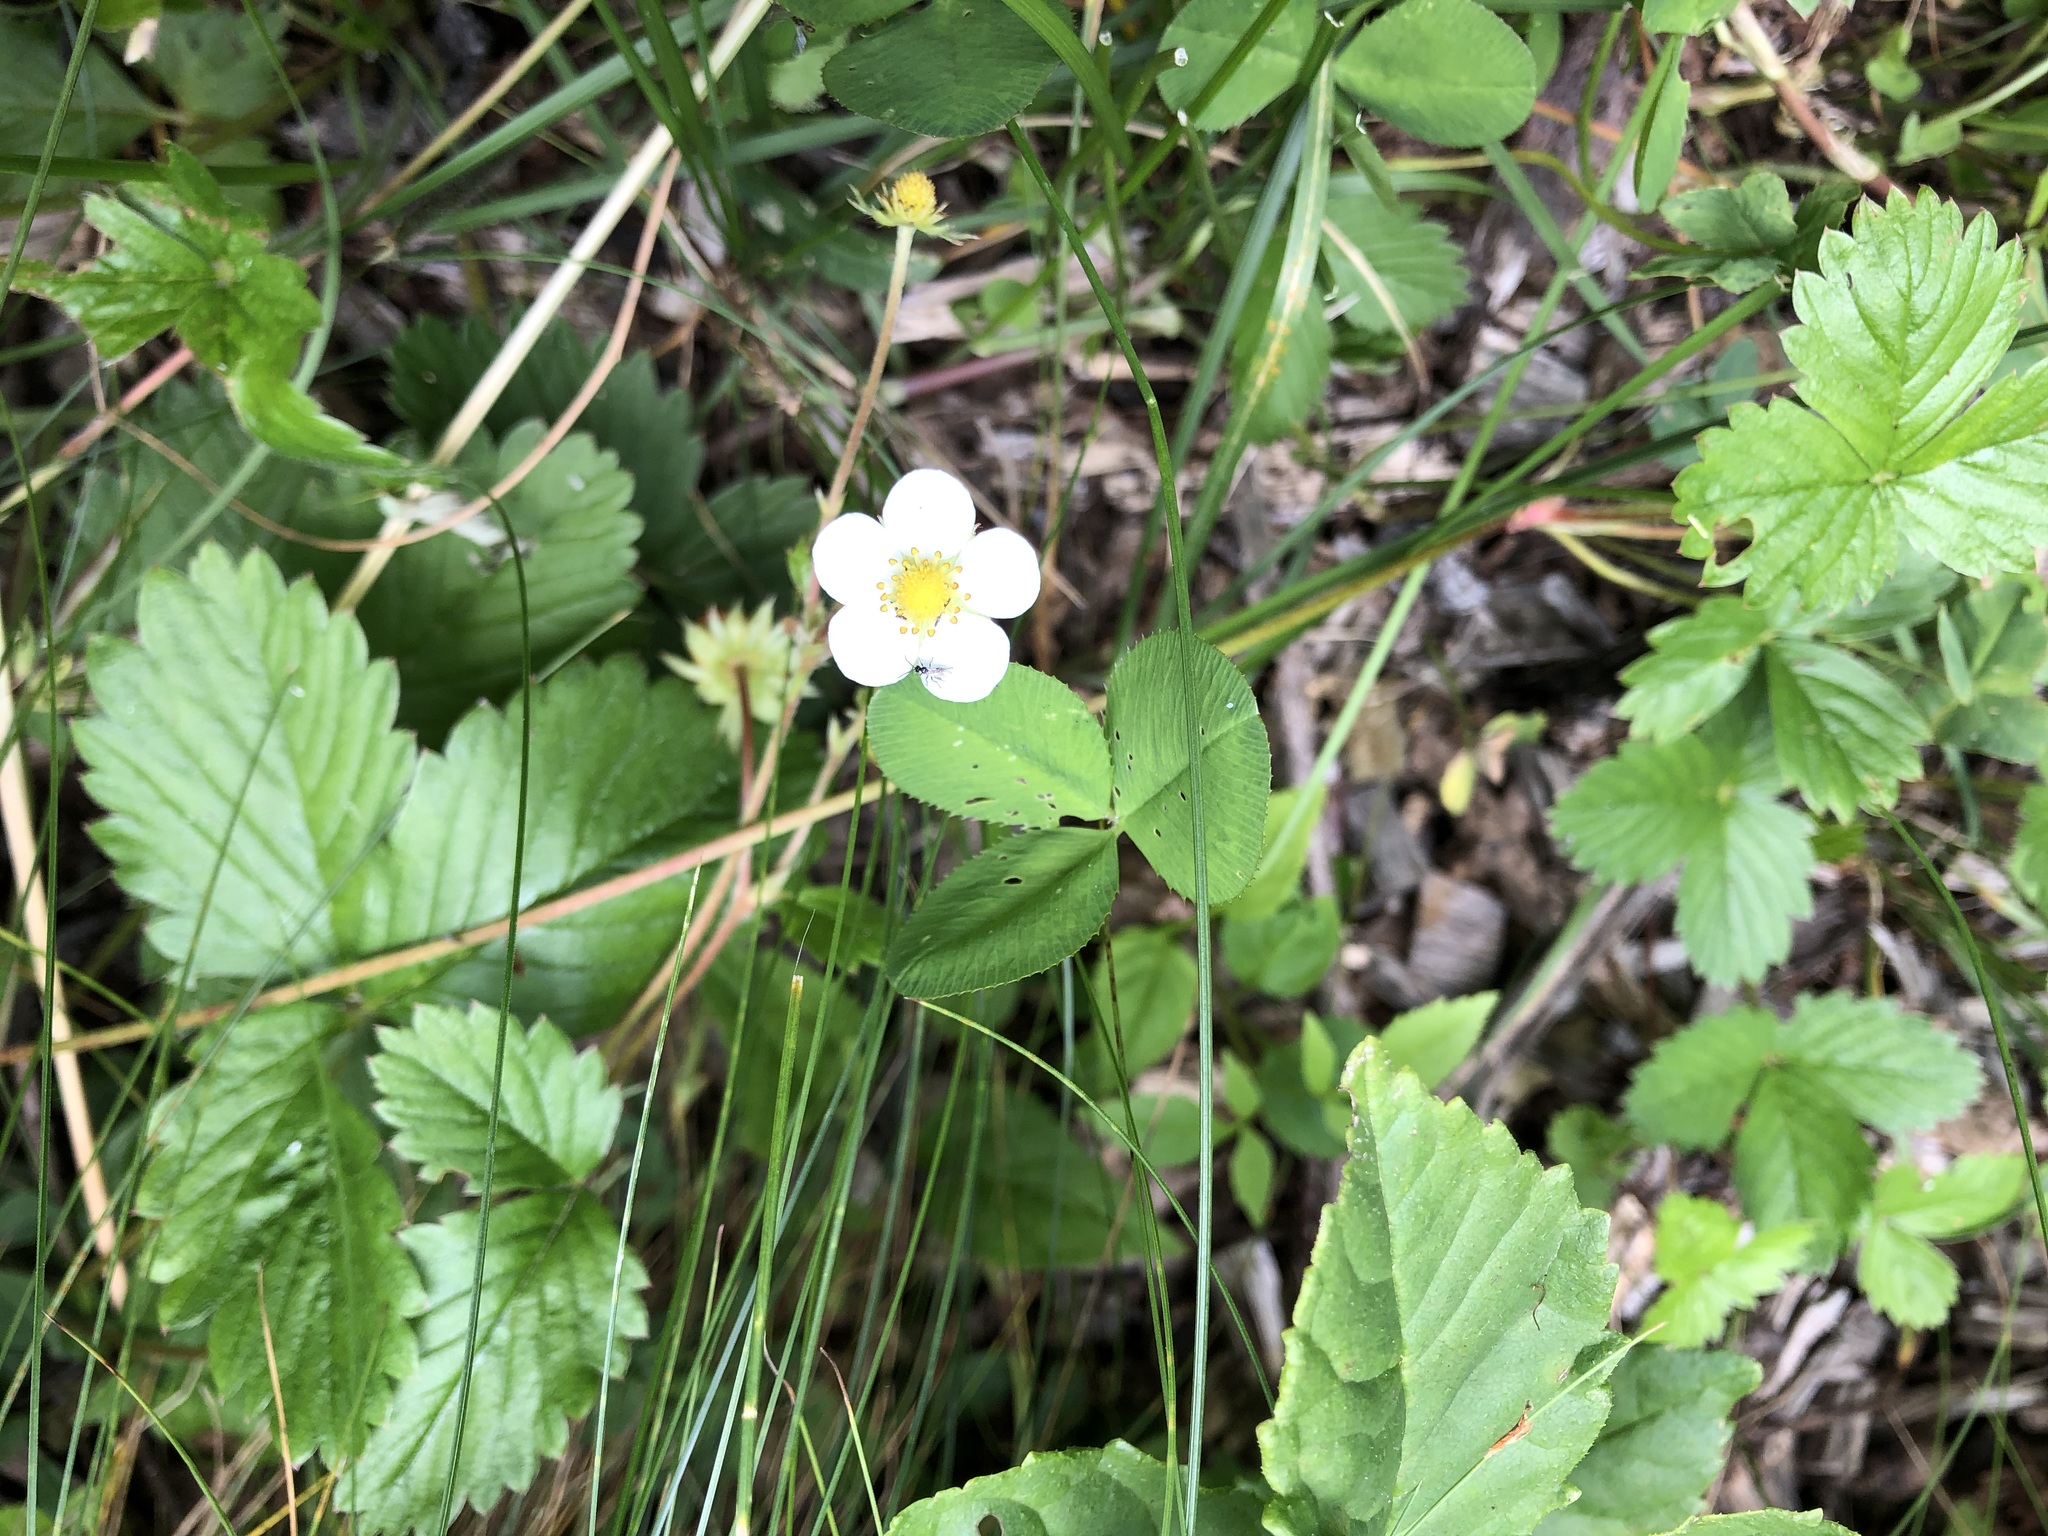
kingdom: Plantae
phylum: Tracheophyta
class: Magnoliopsida
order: Rosales
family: Rosaceae
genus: Fragaria
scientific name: Fragaria vesca
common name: Wild strawberry
